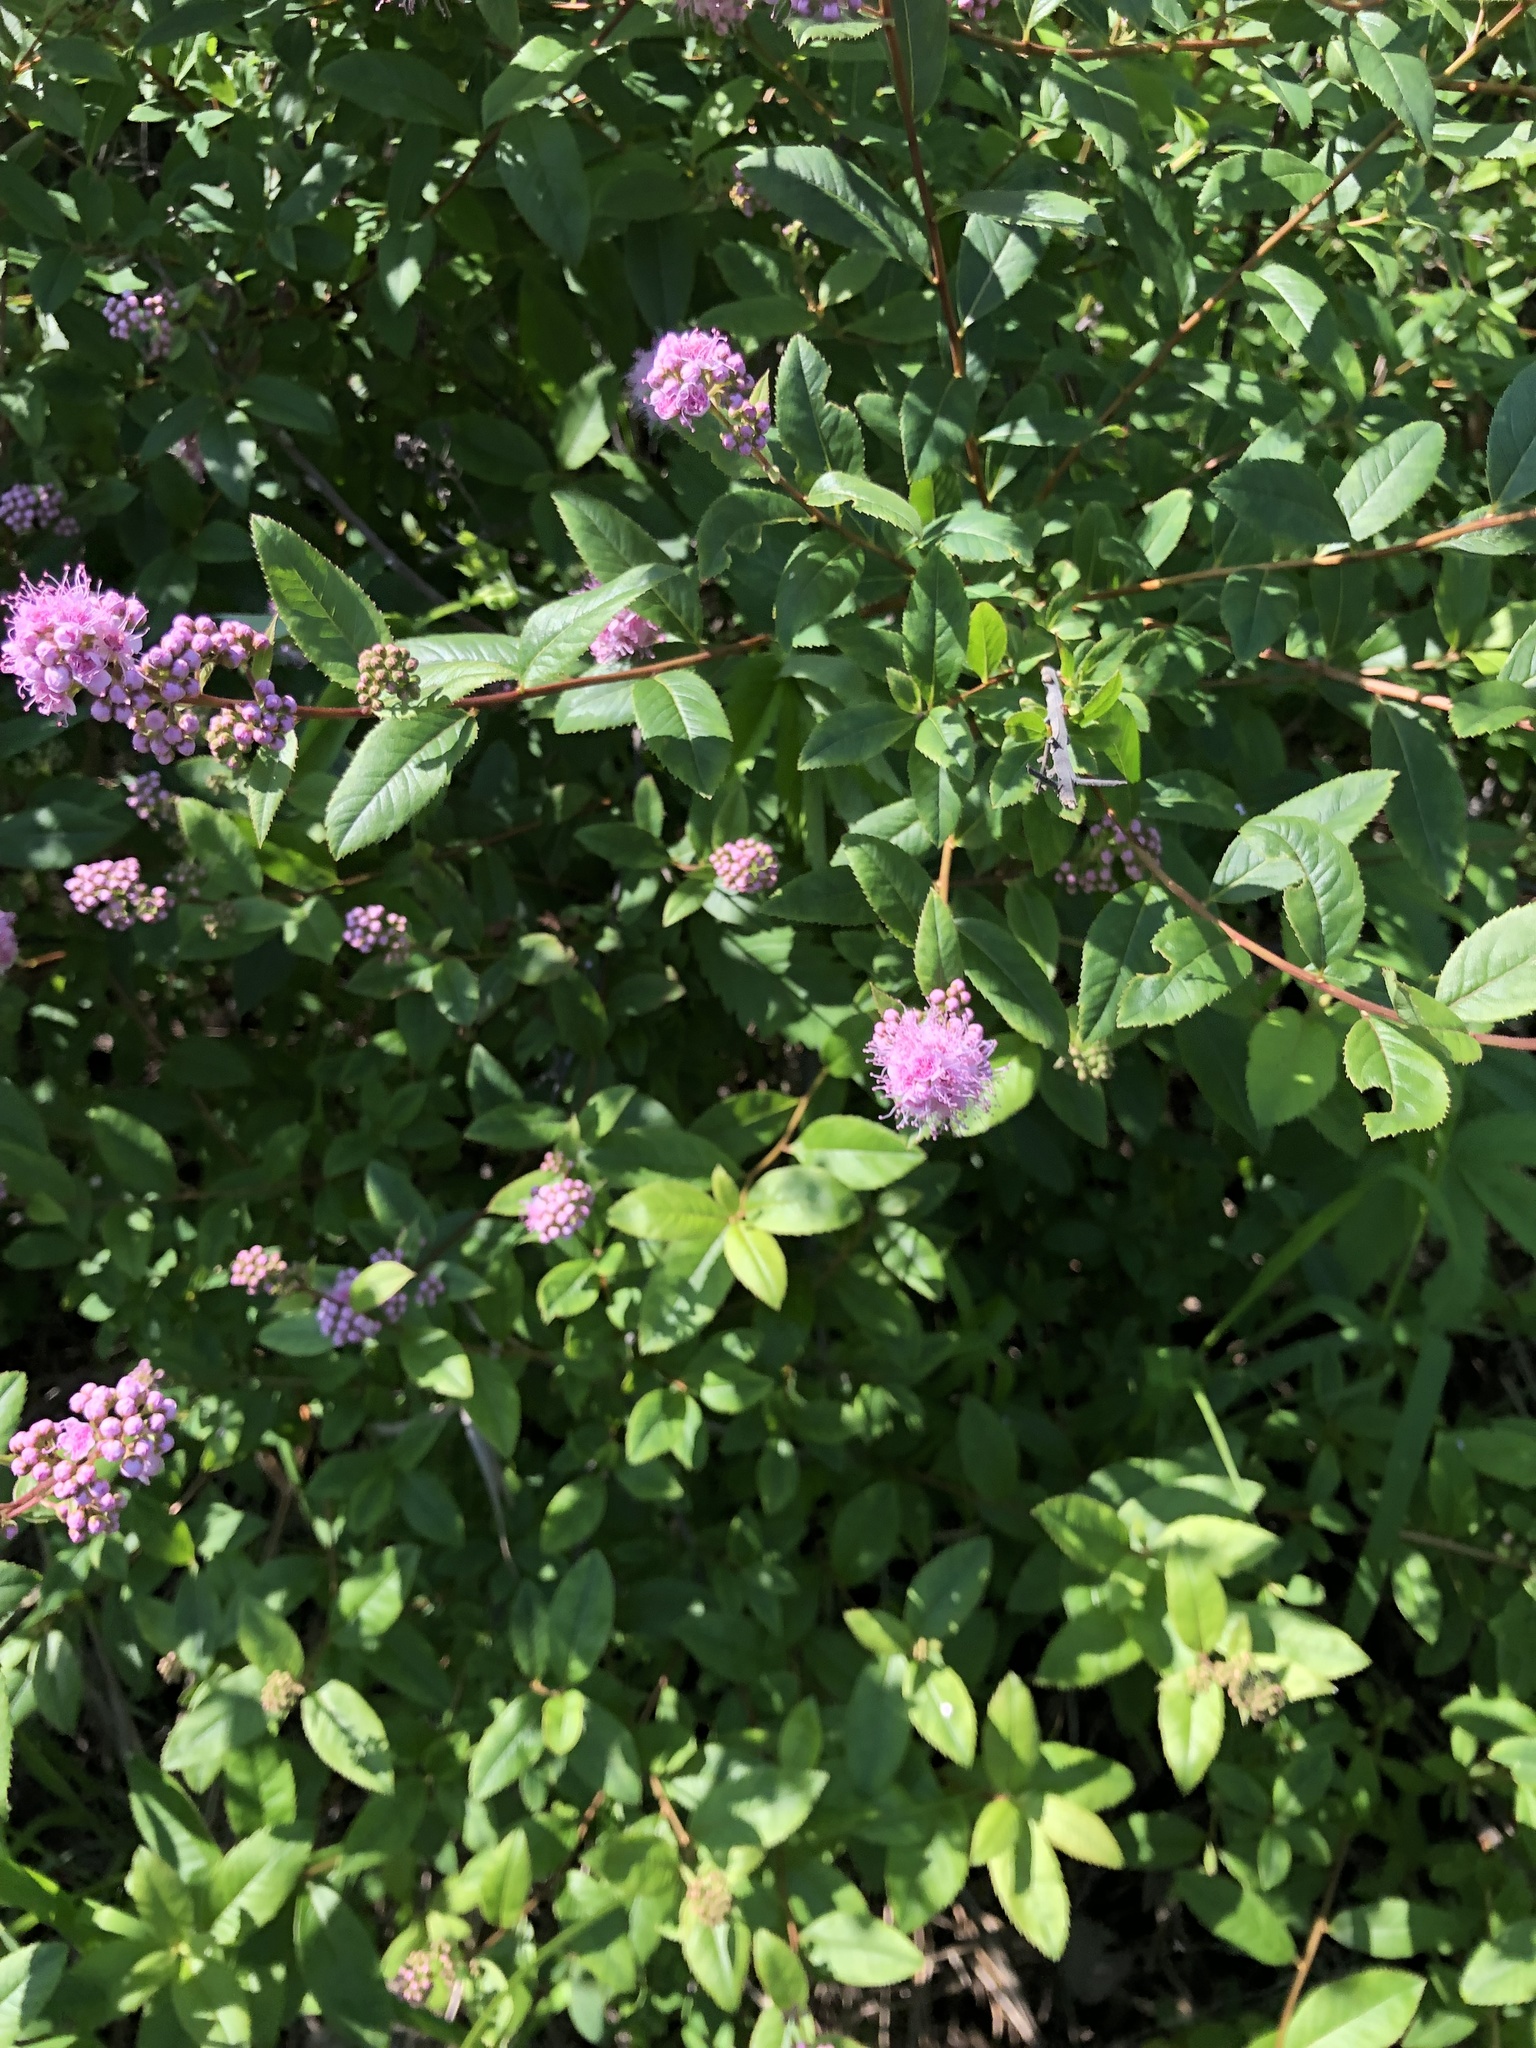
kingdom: Plantae
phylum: Tracheophyta
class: Magnoliopsida
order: Rosales
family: Rosaceae
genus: Spiraea
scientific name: Spiraea salicifolia
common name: Bridewort
